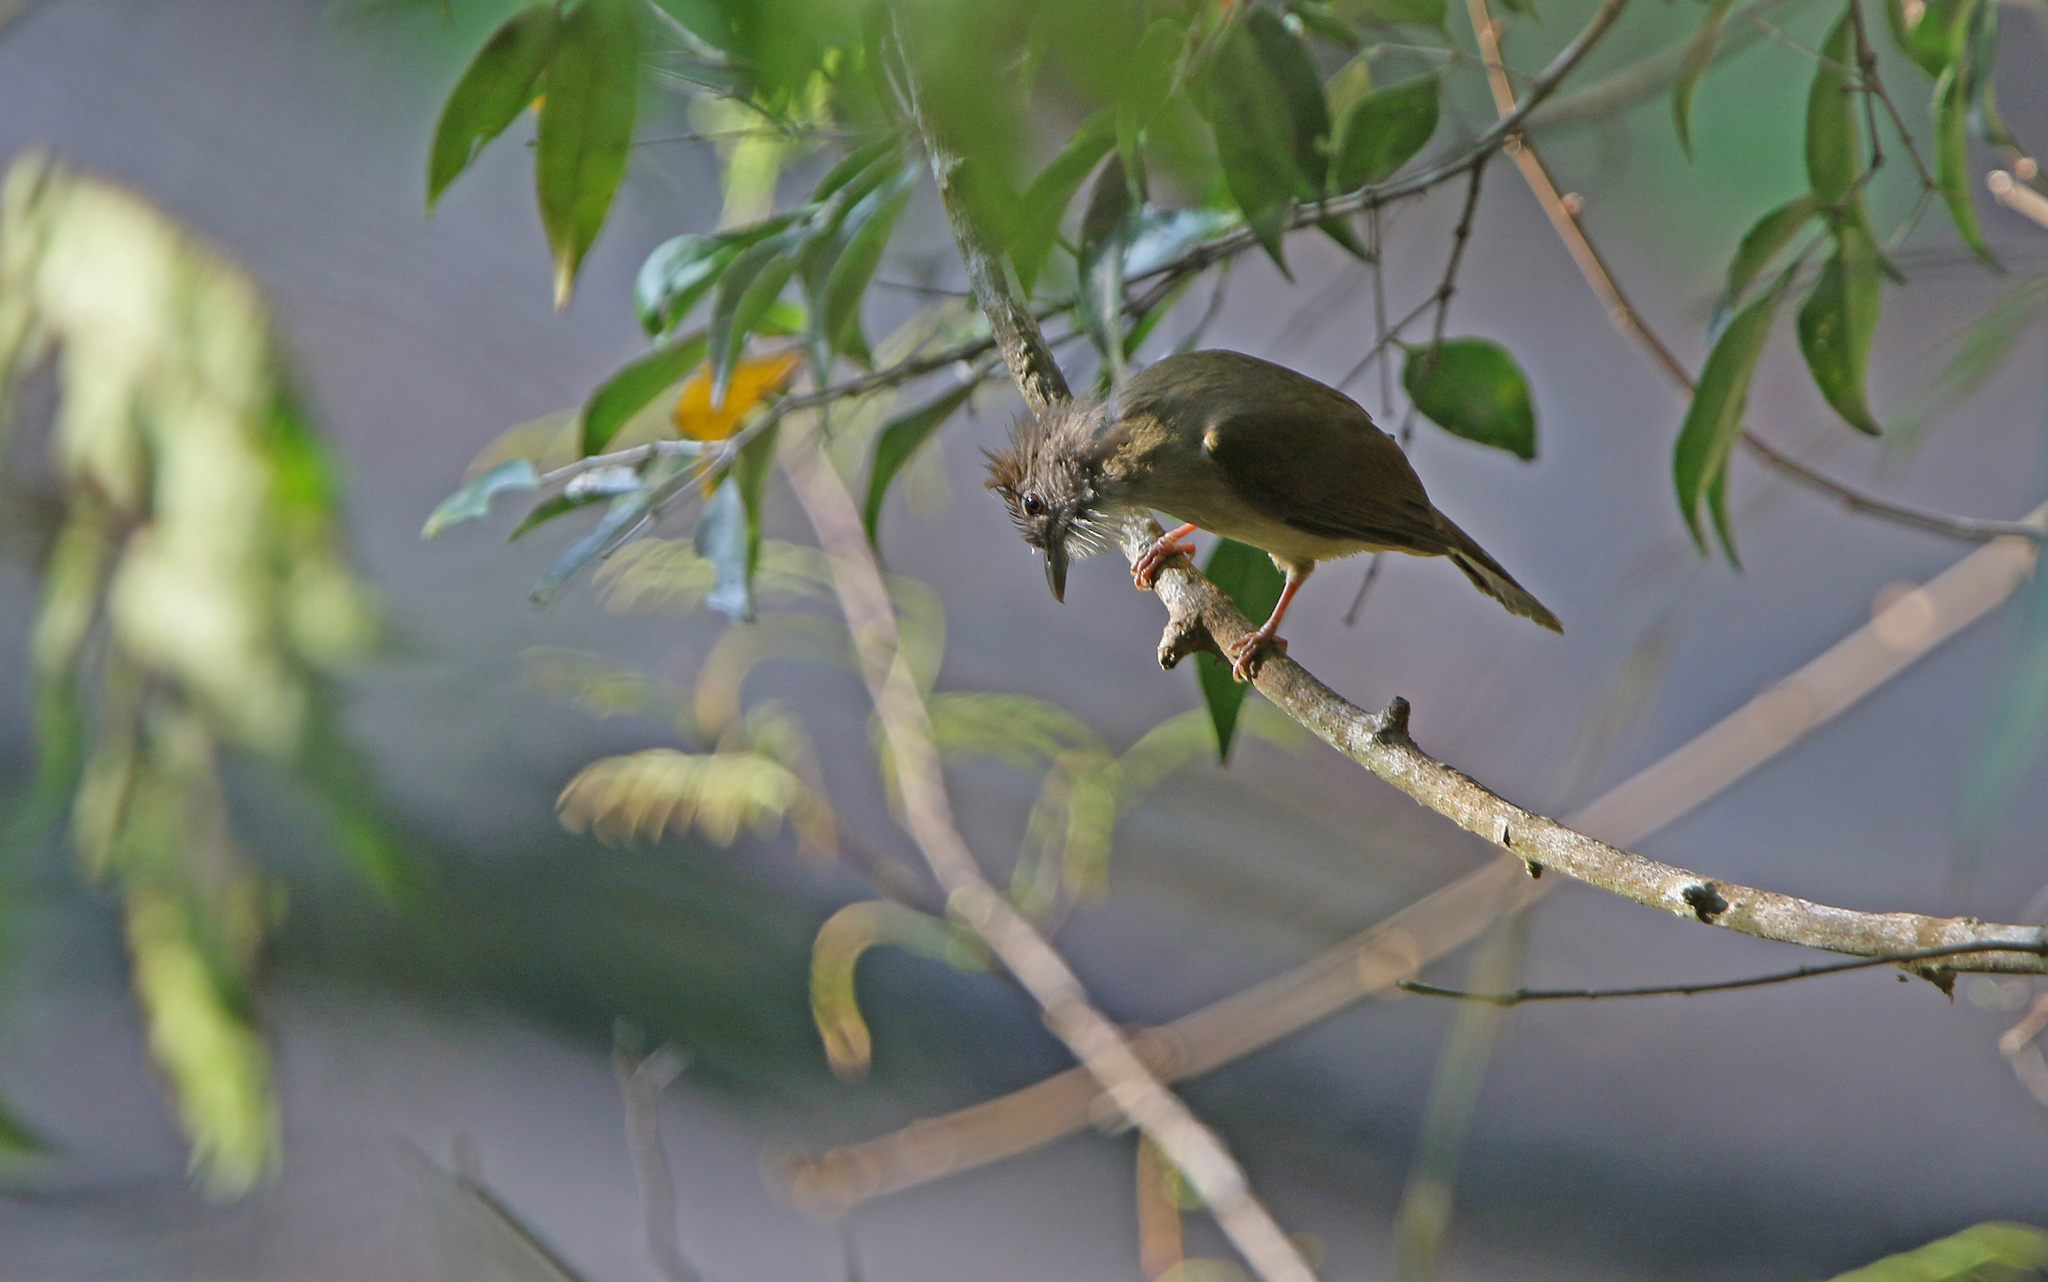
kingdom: Animalia
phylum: Chordata
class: Aves
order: Passeriformes
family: Pycnonotidae
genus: Alophoixus
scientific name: Alophoixus pallidus
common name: Puff-throated bulbul
